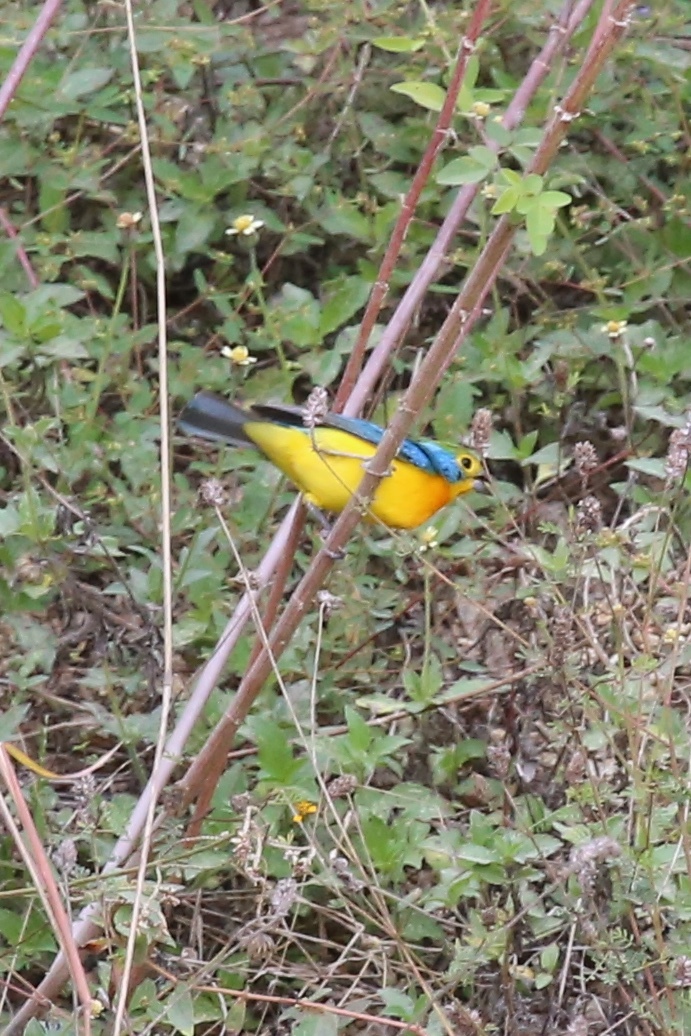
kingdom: Animalia
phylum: Chordata
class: Aves
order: Passeriformes
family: Cardinalidae
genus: Passerina
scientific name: Passerina leclancherii
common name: Orange-breasted bunting
